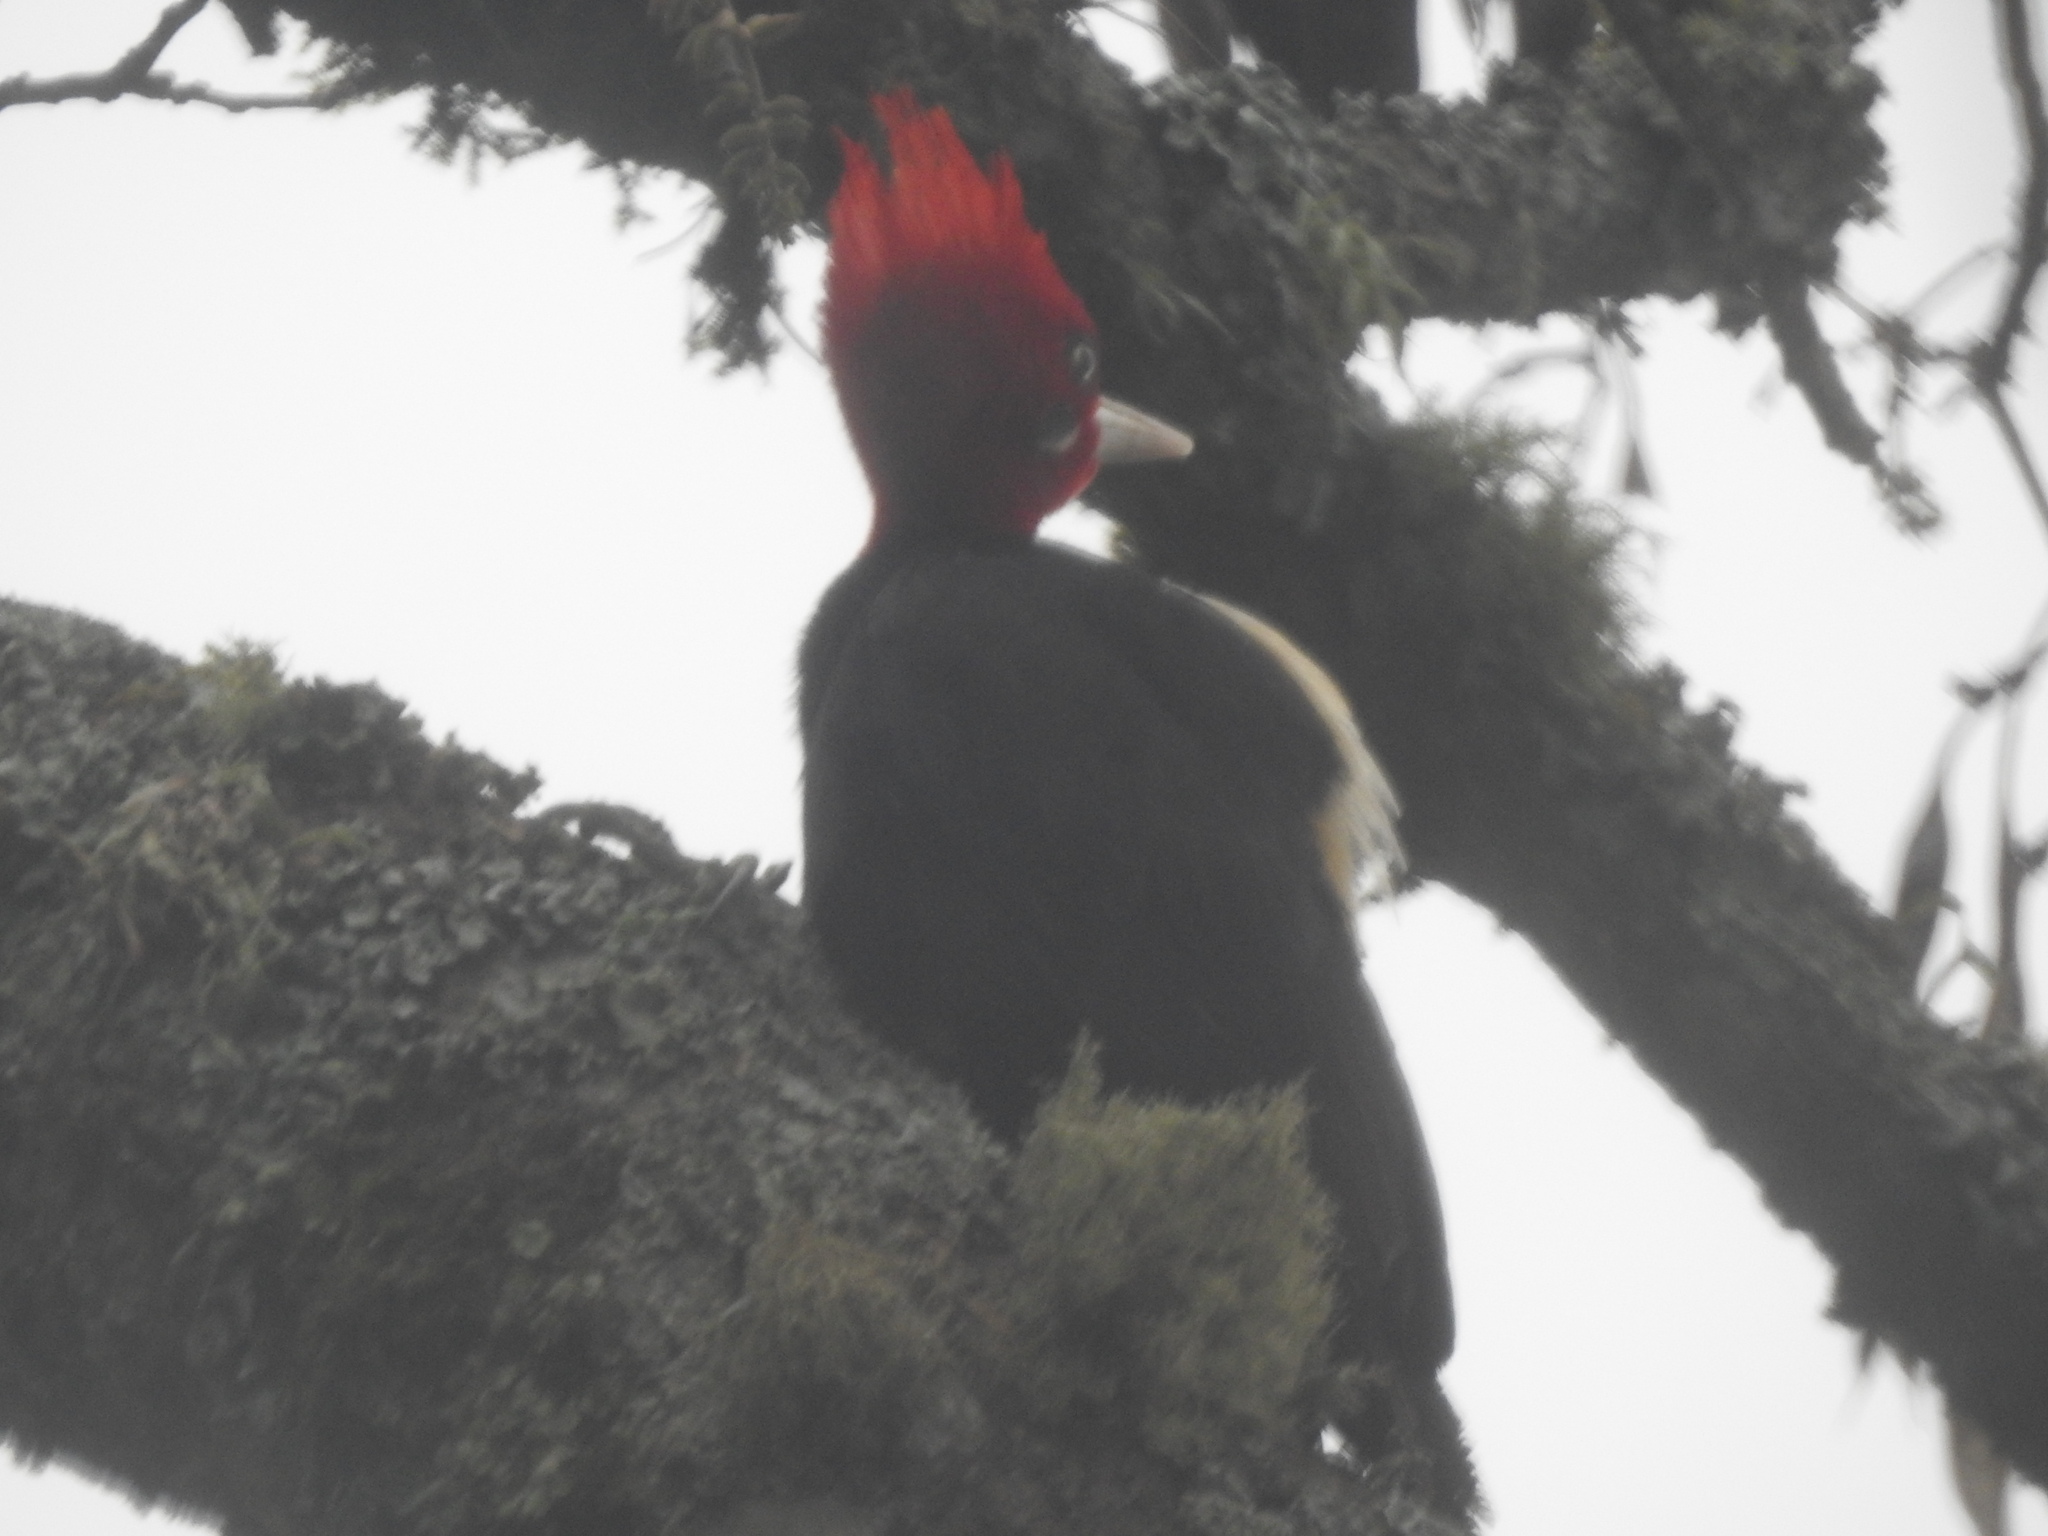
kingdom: Animalia
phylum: Chordata
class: Aves
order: Piciformes
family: Picidae
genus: Campephilus
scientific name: Campephilus leucopogon
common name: Cream-backed woodpecker
